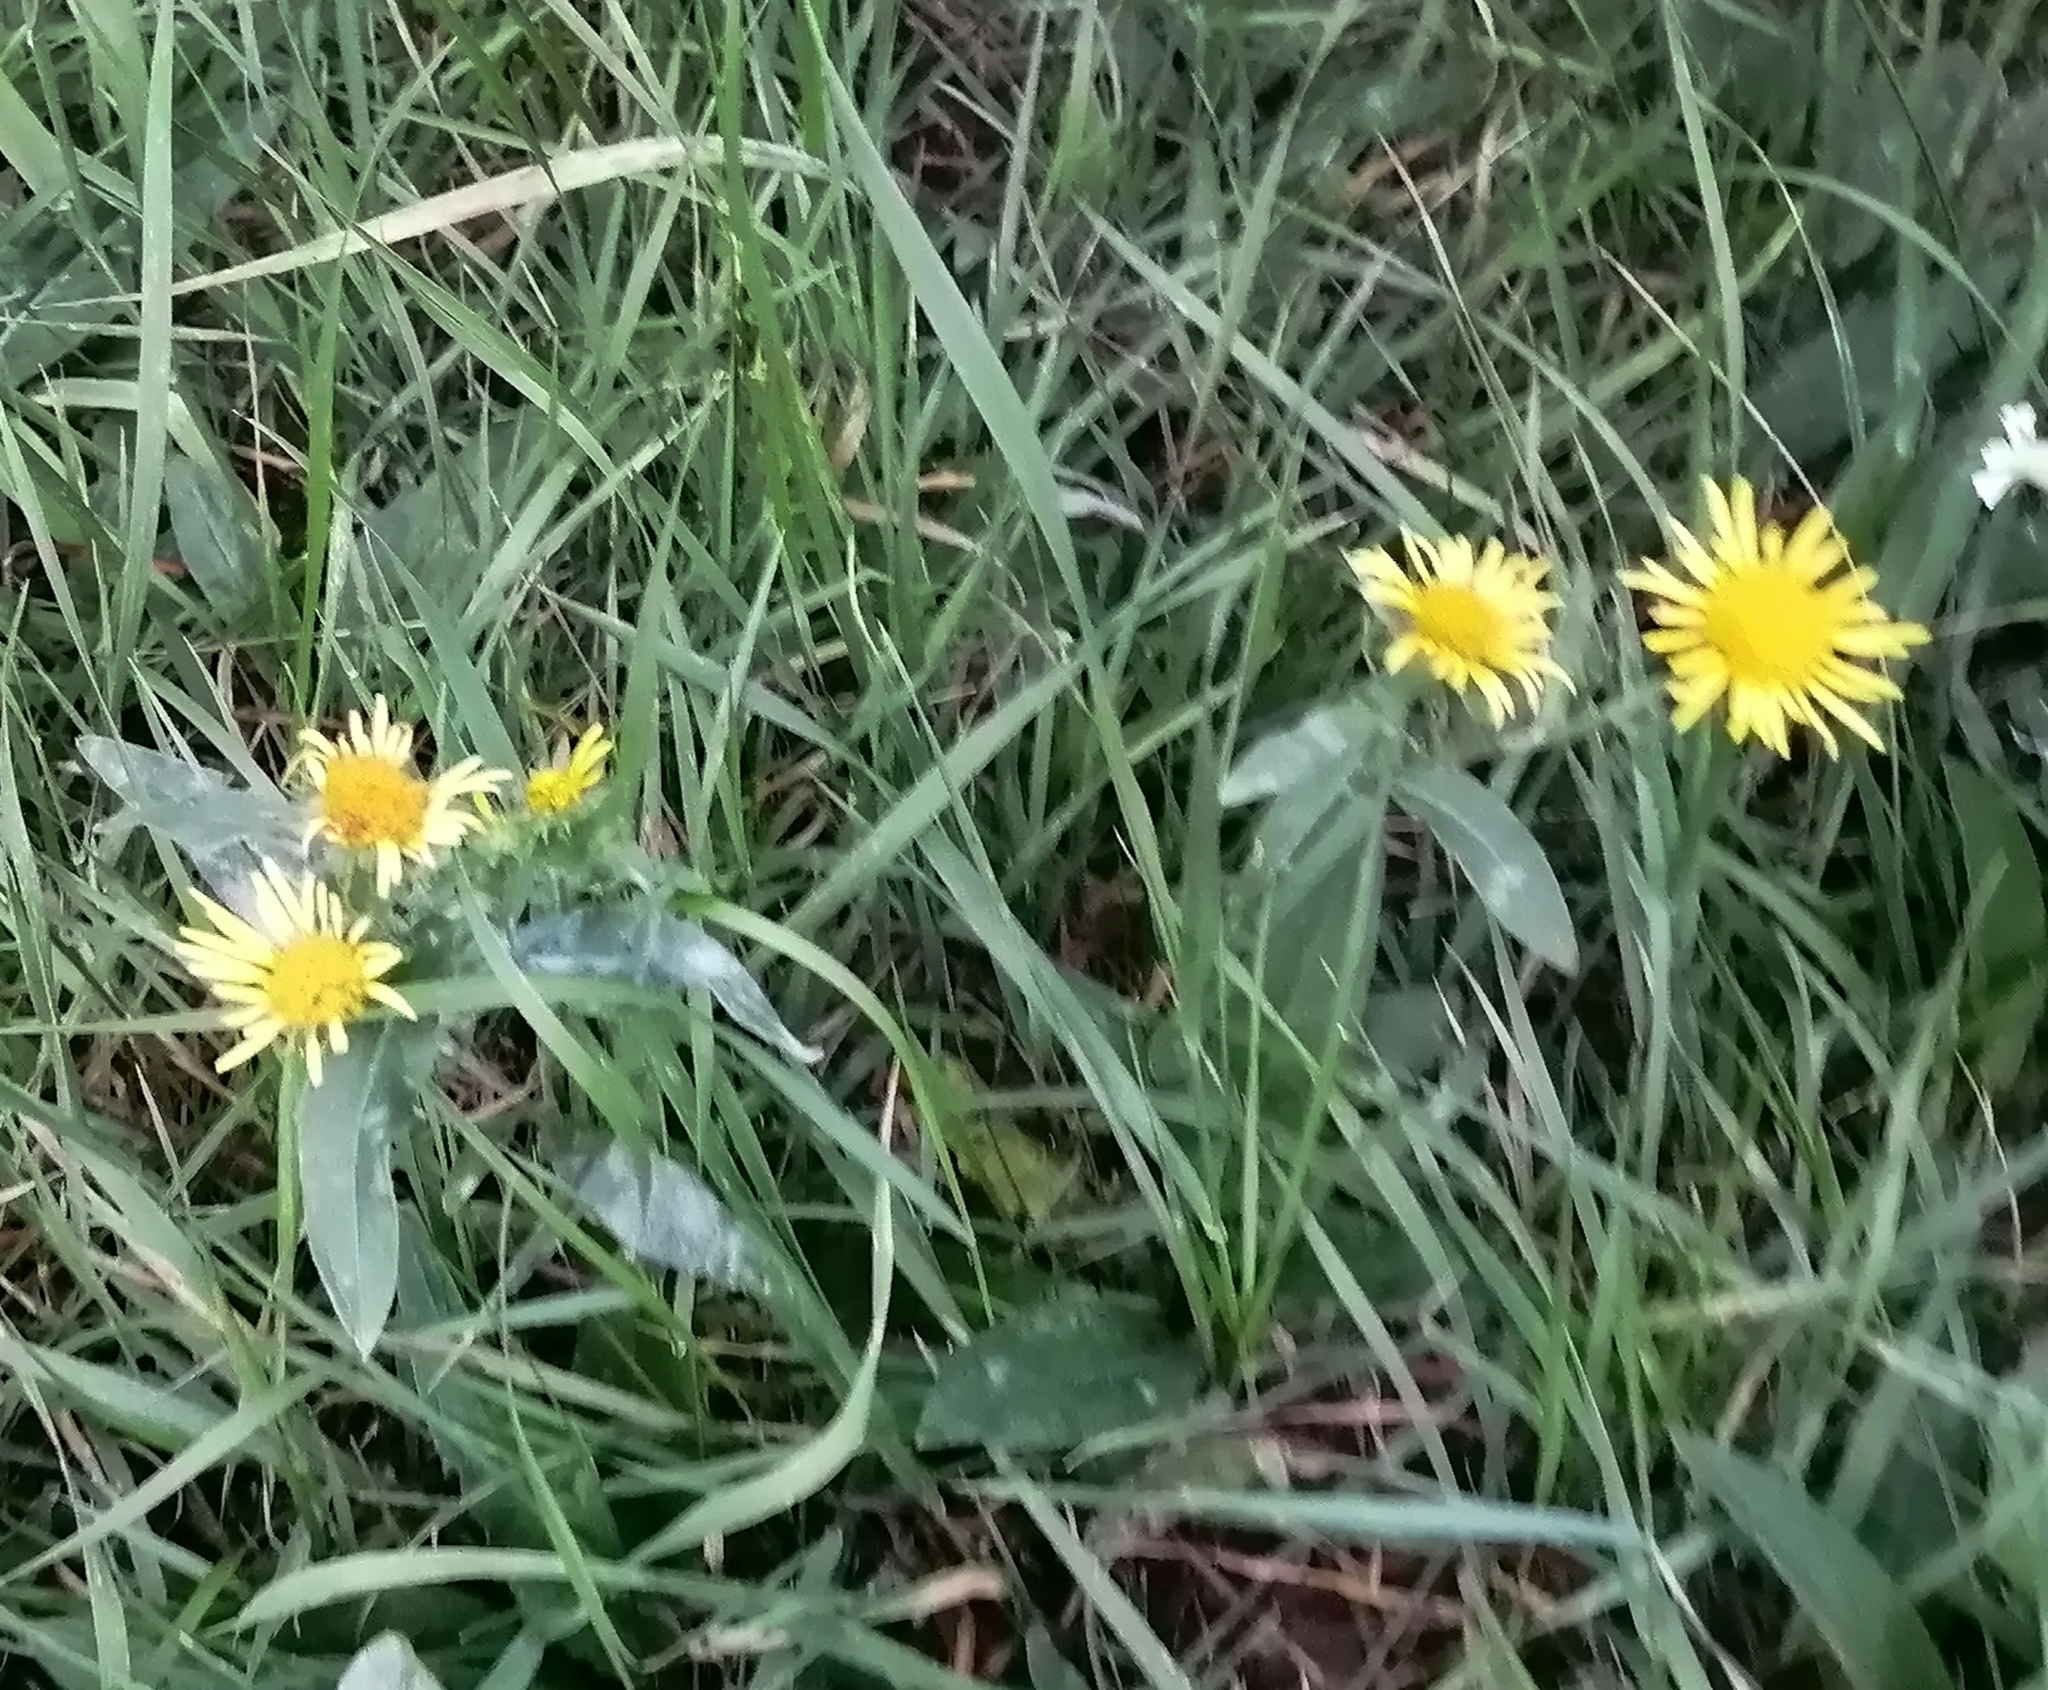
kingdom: Plantae
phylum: Tracheophyta
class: Magnoliopsida
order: Asterales
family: Asteraceae
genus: Pentanema
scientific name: Pentanema britannicum
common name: British elecampane
